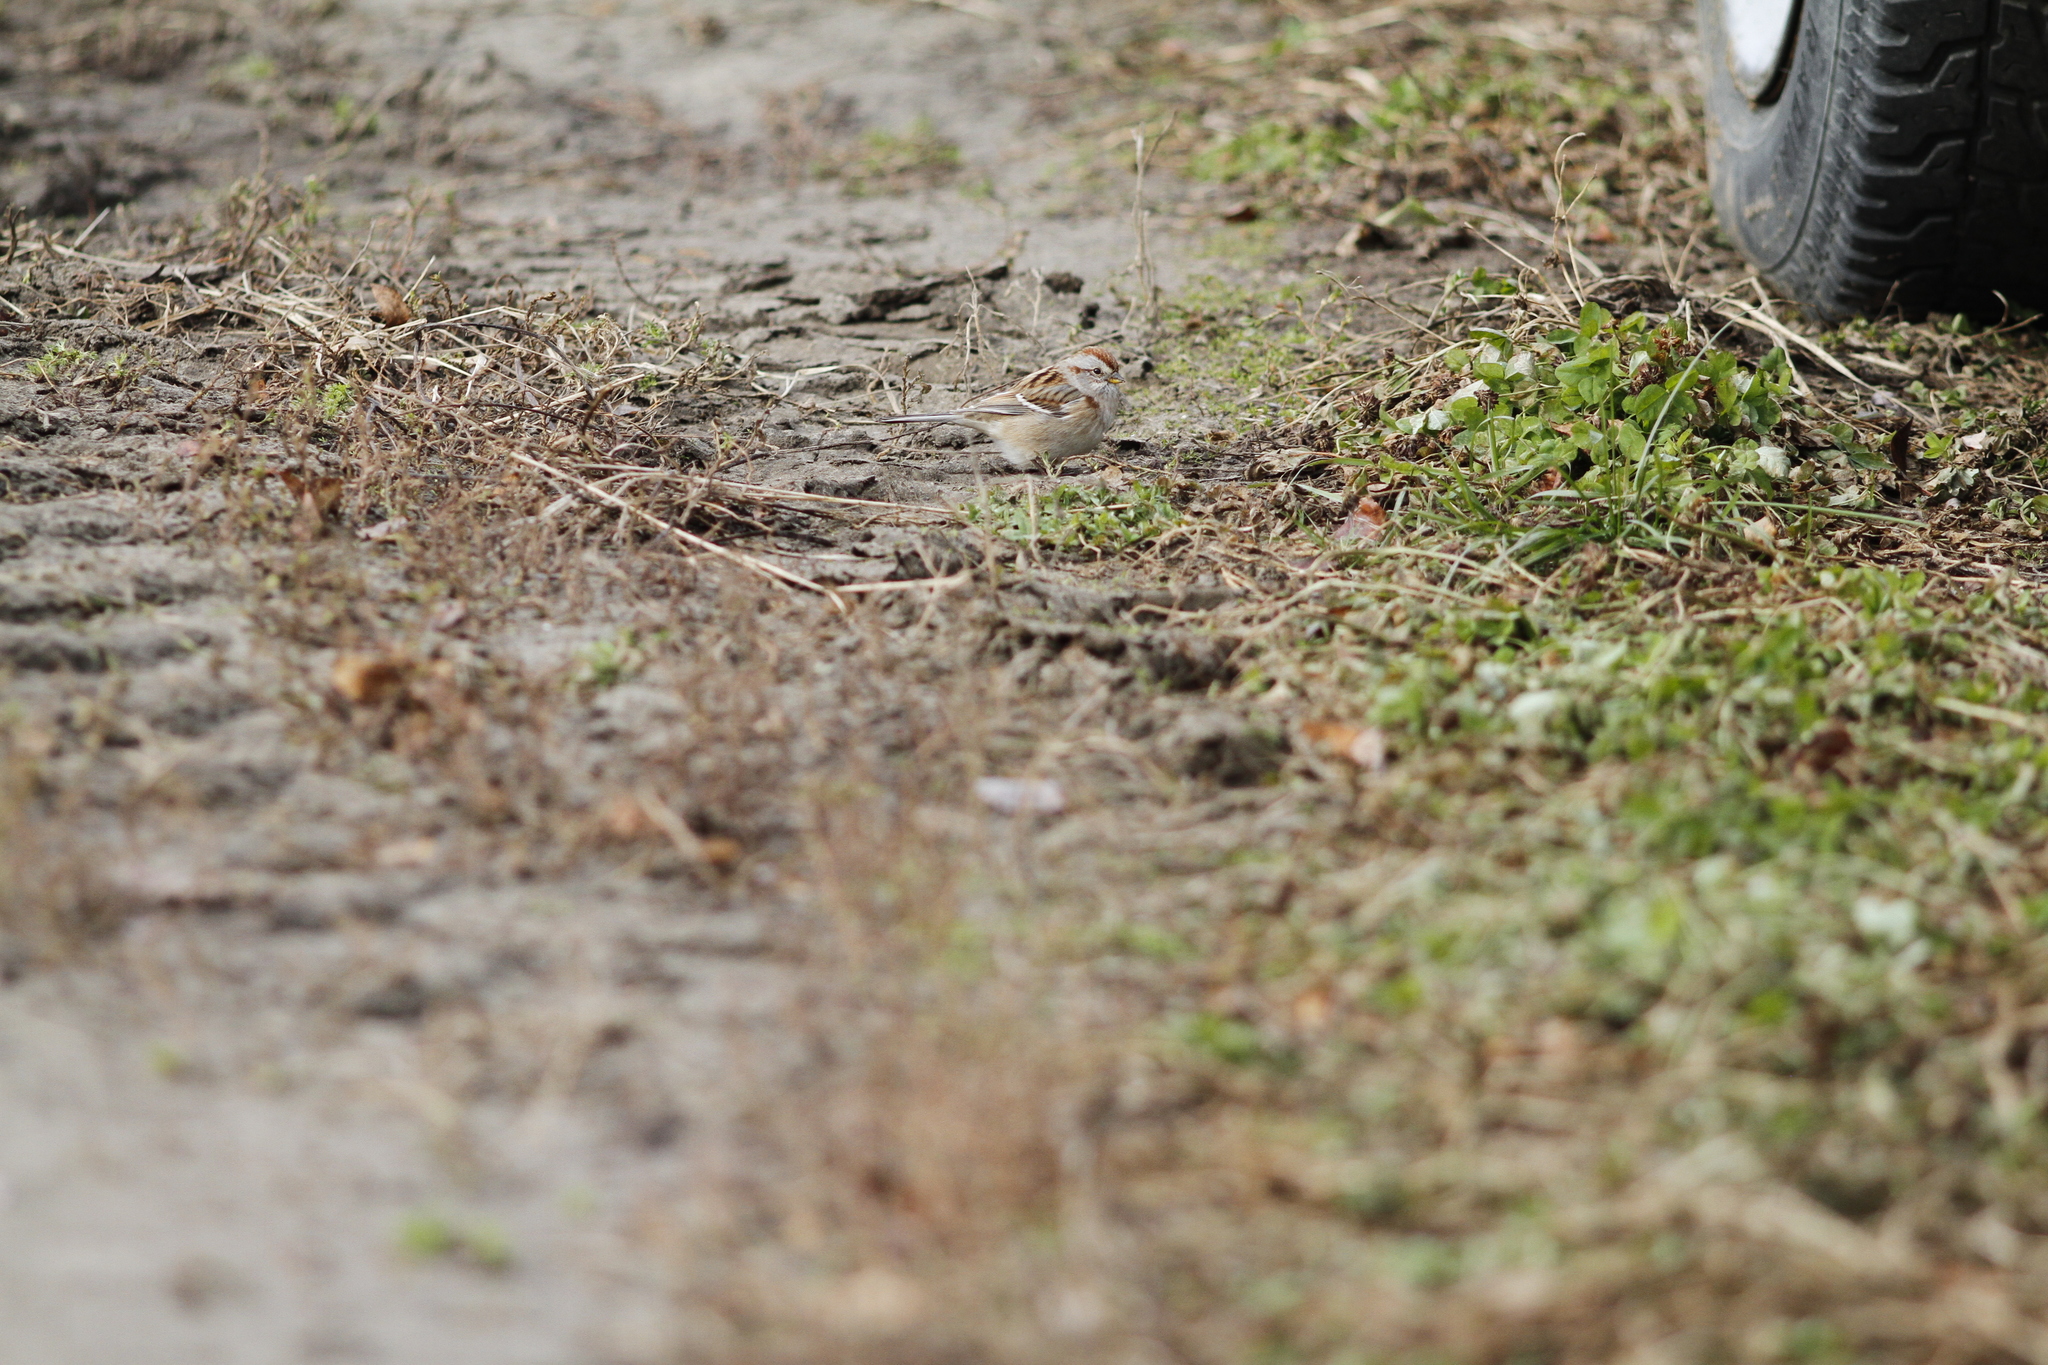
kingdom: Animalia
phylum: Chordata
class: Aves
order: Passeriformes
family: Passerellidae
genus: Spizelloides
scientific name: Spizelloides arborea
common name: American tree sparrow
